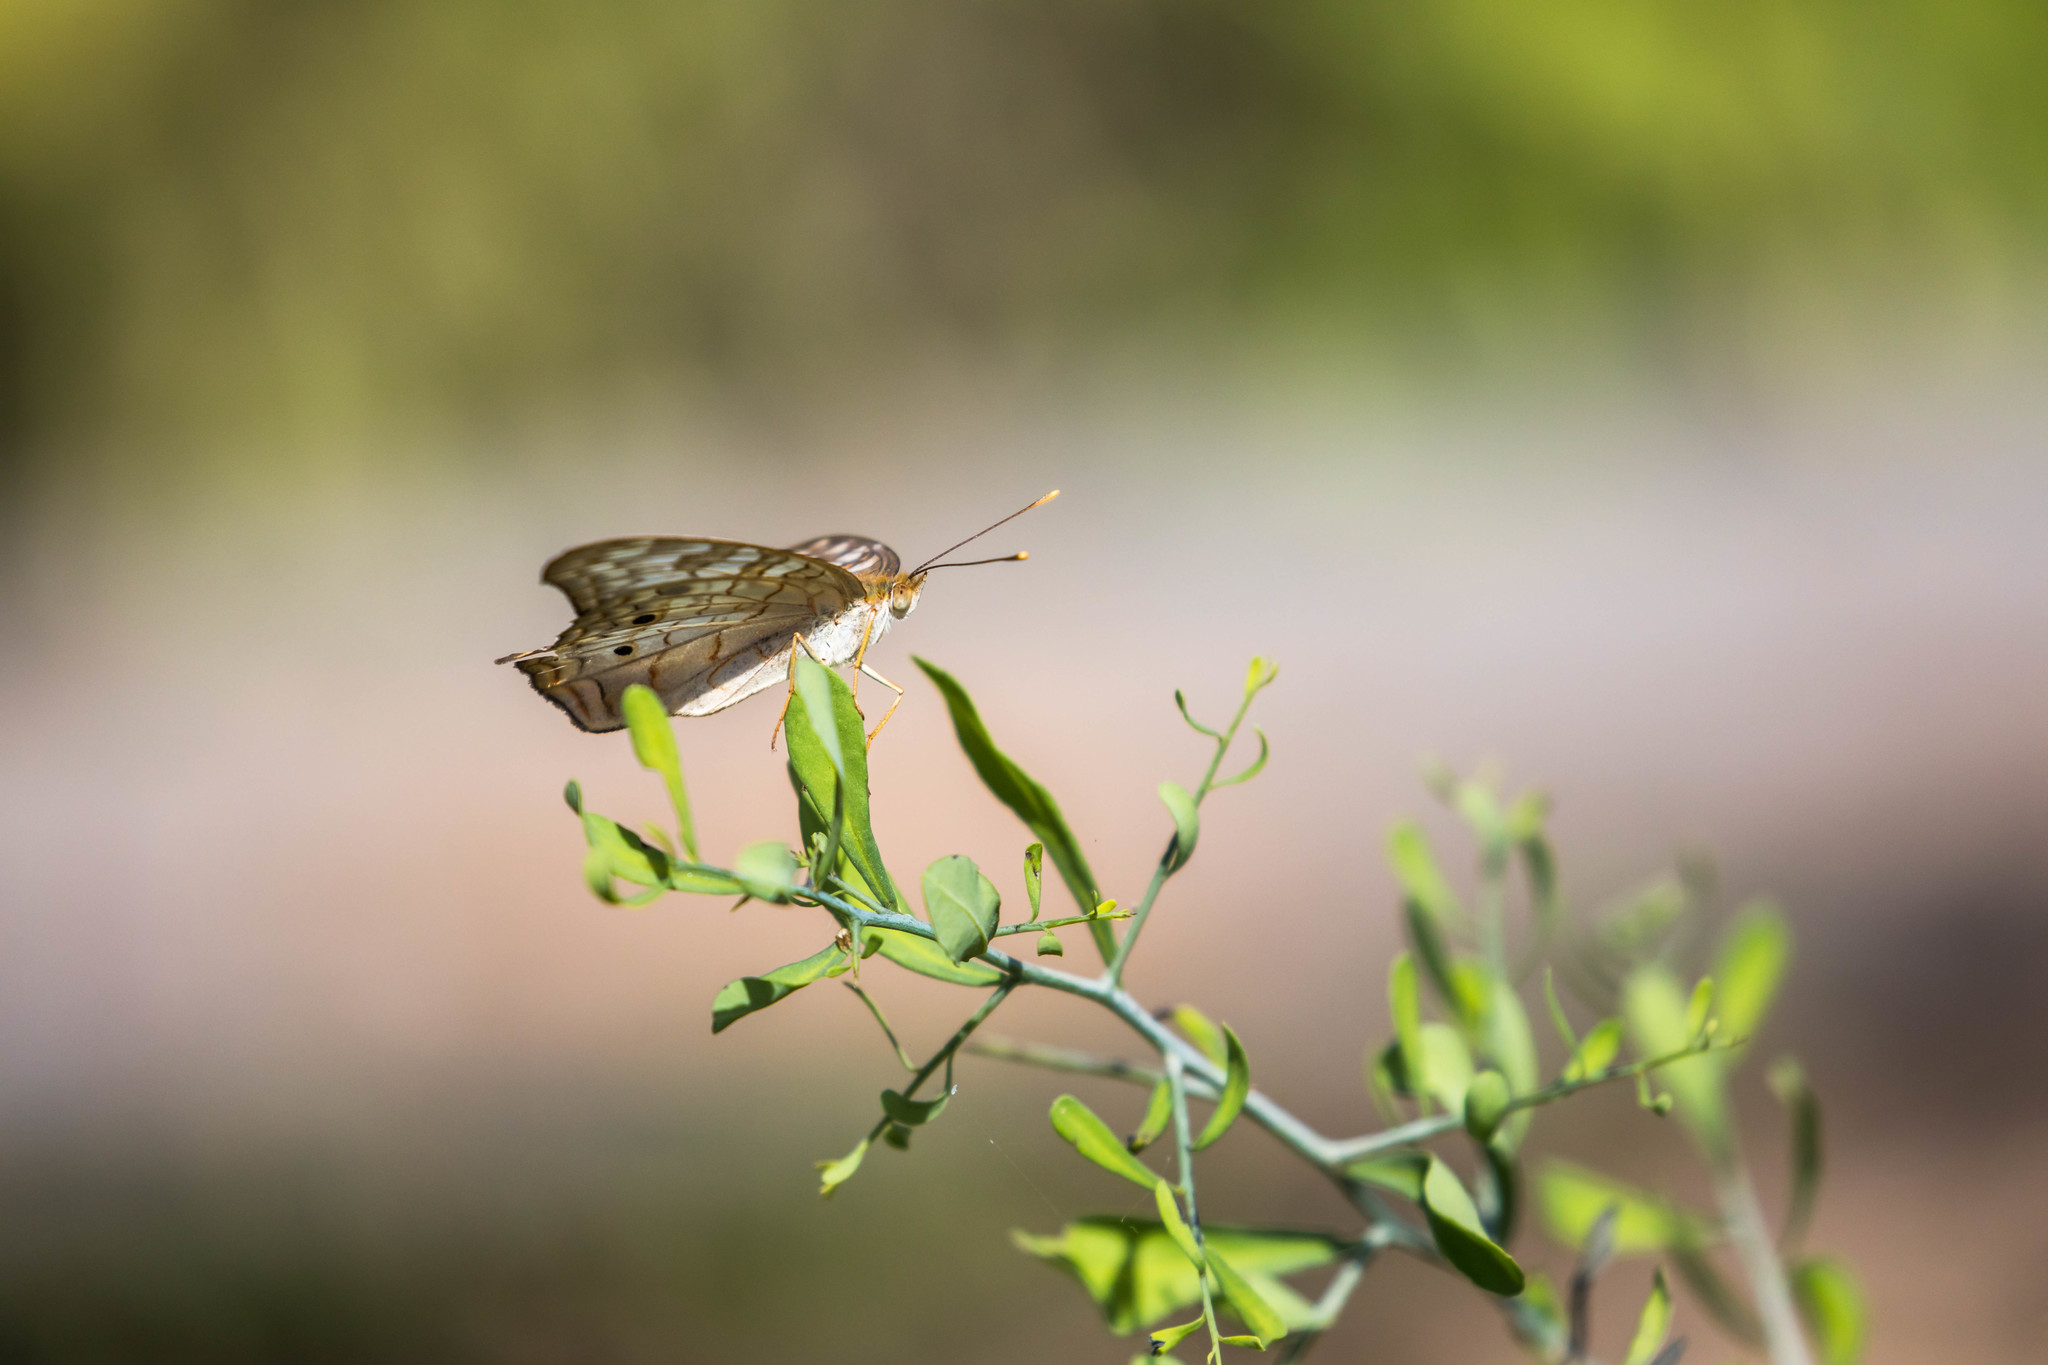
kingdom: Animalia
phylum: Arthropoda
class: Insecta
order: Lepidoptera
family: Nymphalidae
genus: Anartia
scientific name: Anartia jatrophae
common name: White peacock
